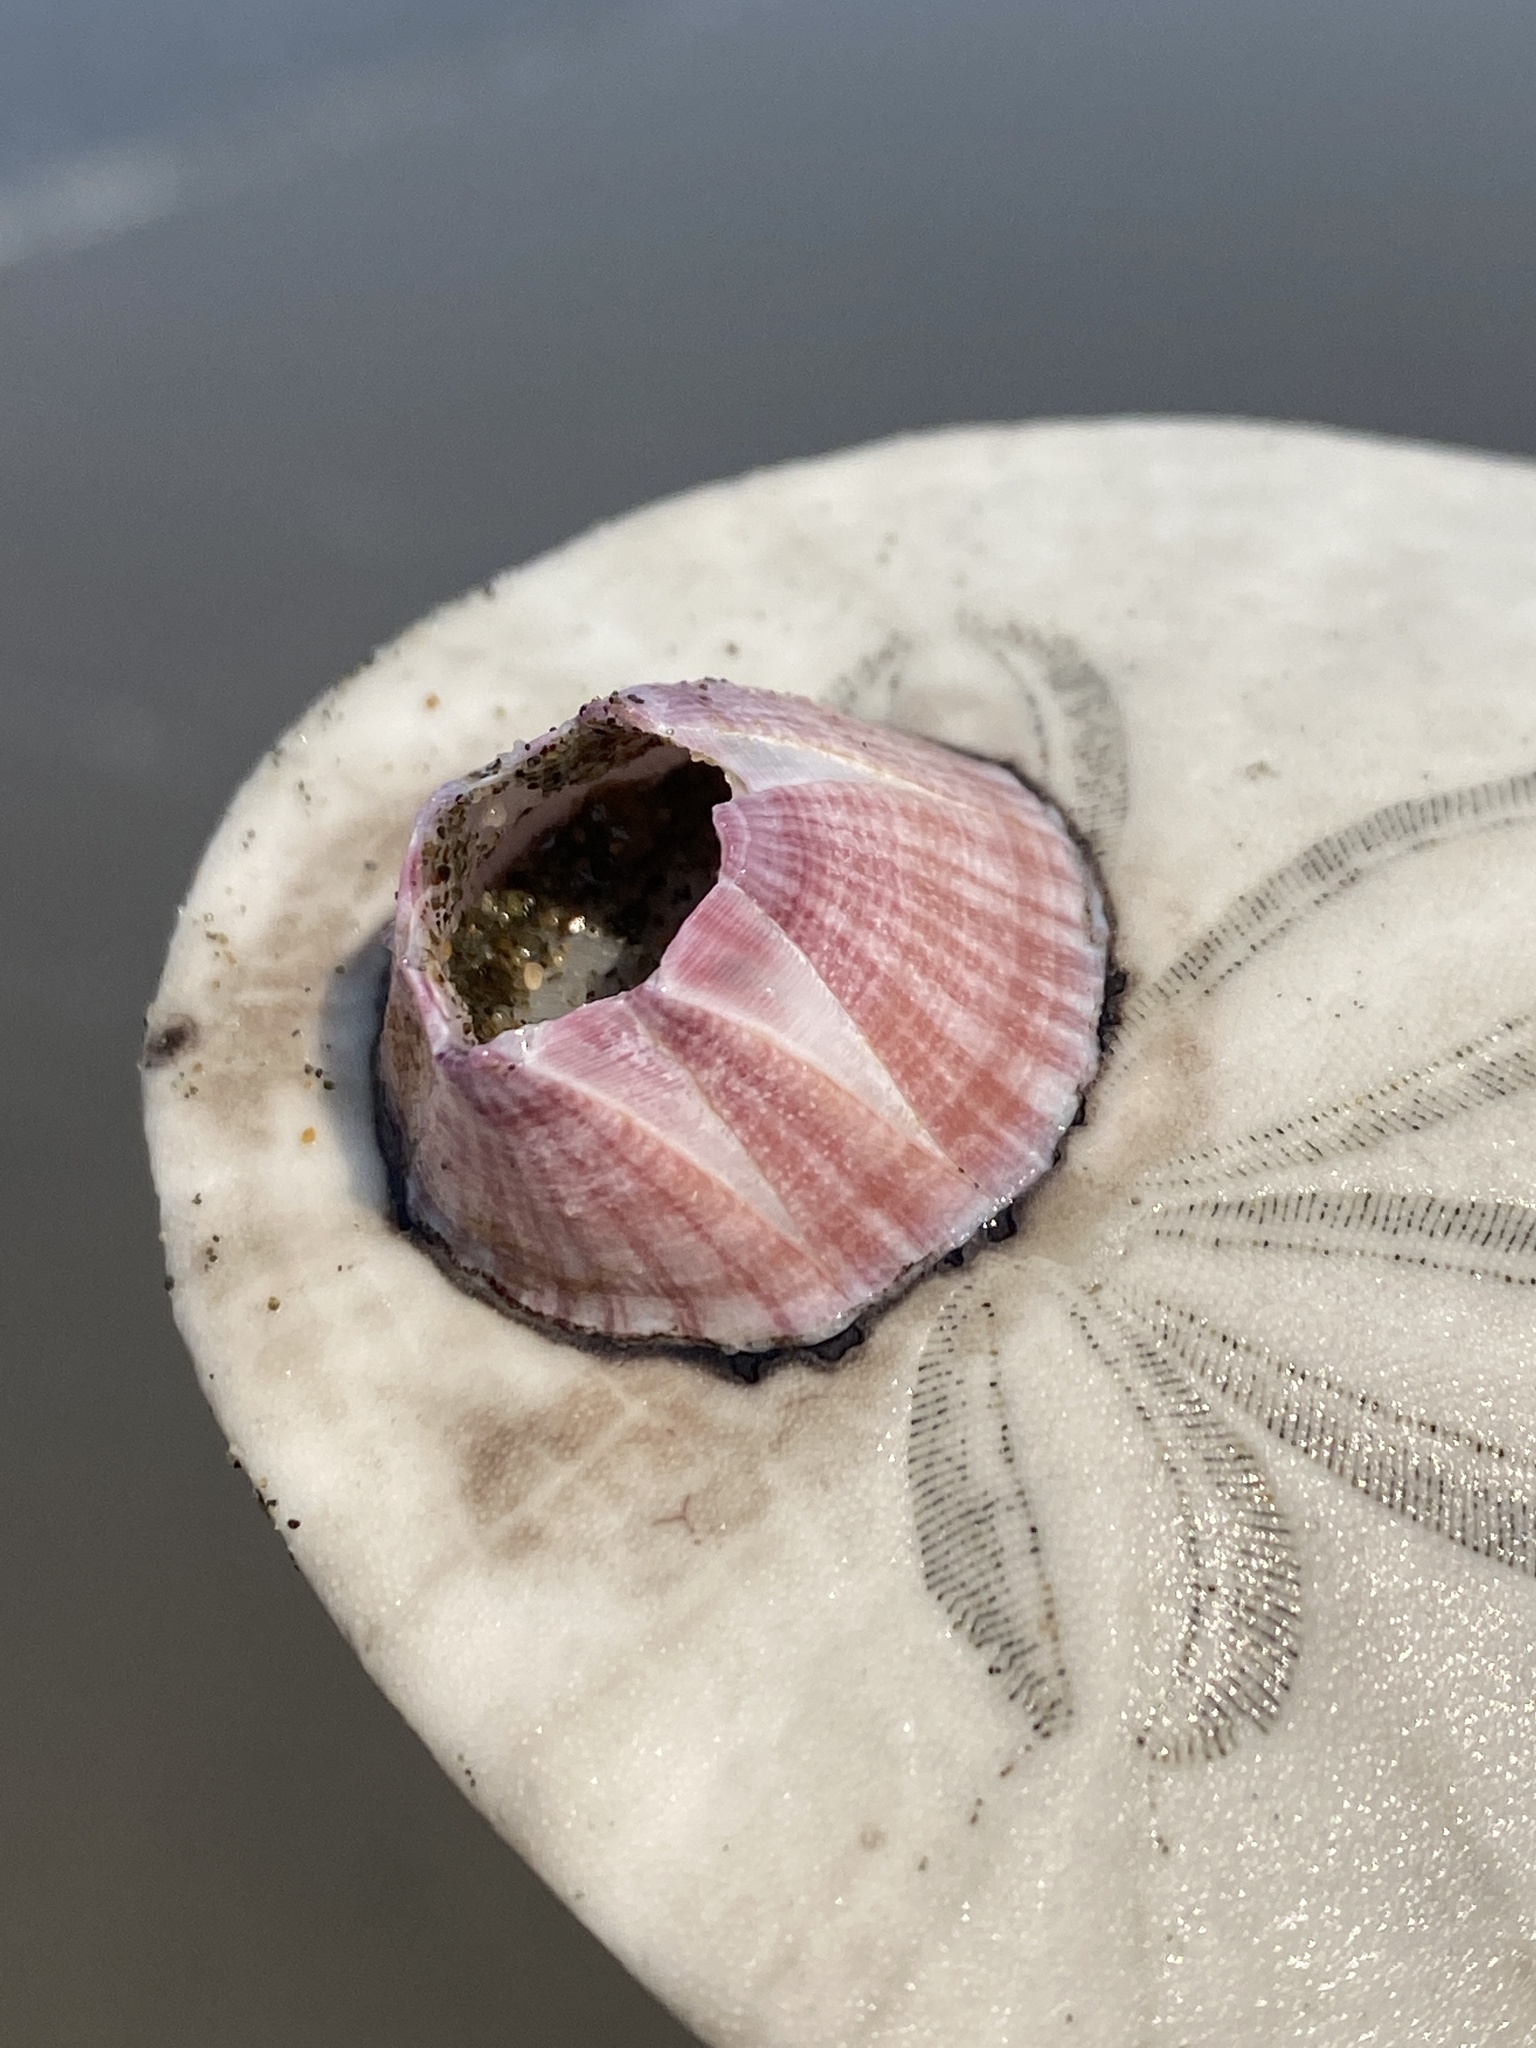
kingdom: Animalia
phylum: Arthropoda
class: Maxillopoda
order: Sessilia
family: Balanidae
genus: Paraconcavus
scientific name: Paraconcavus pacificus
